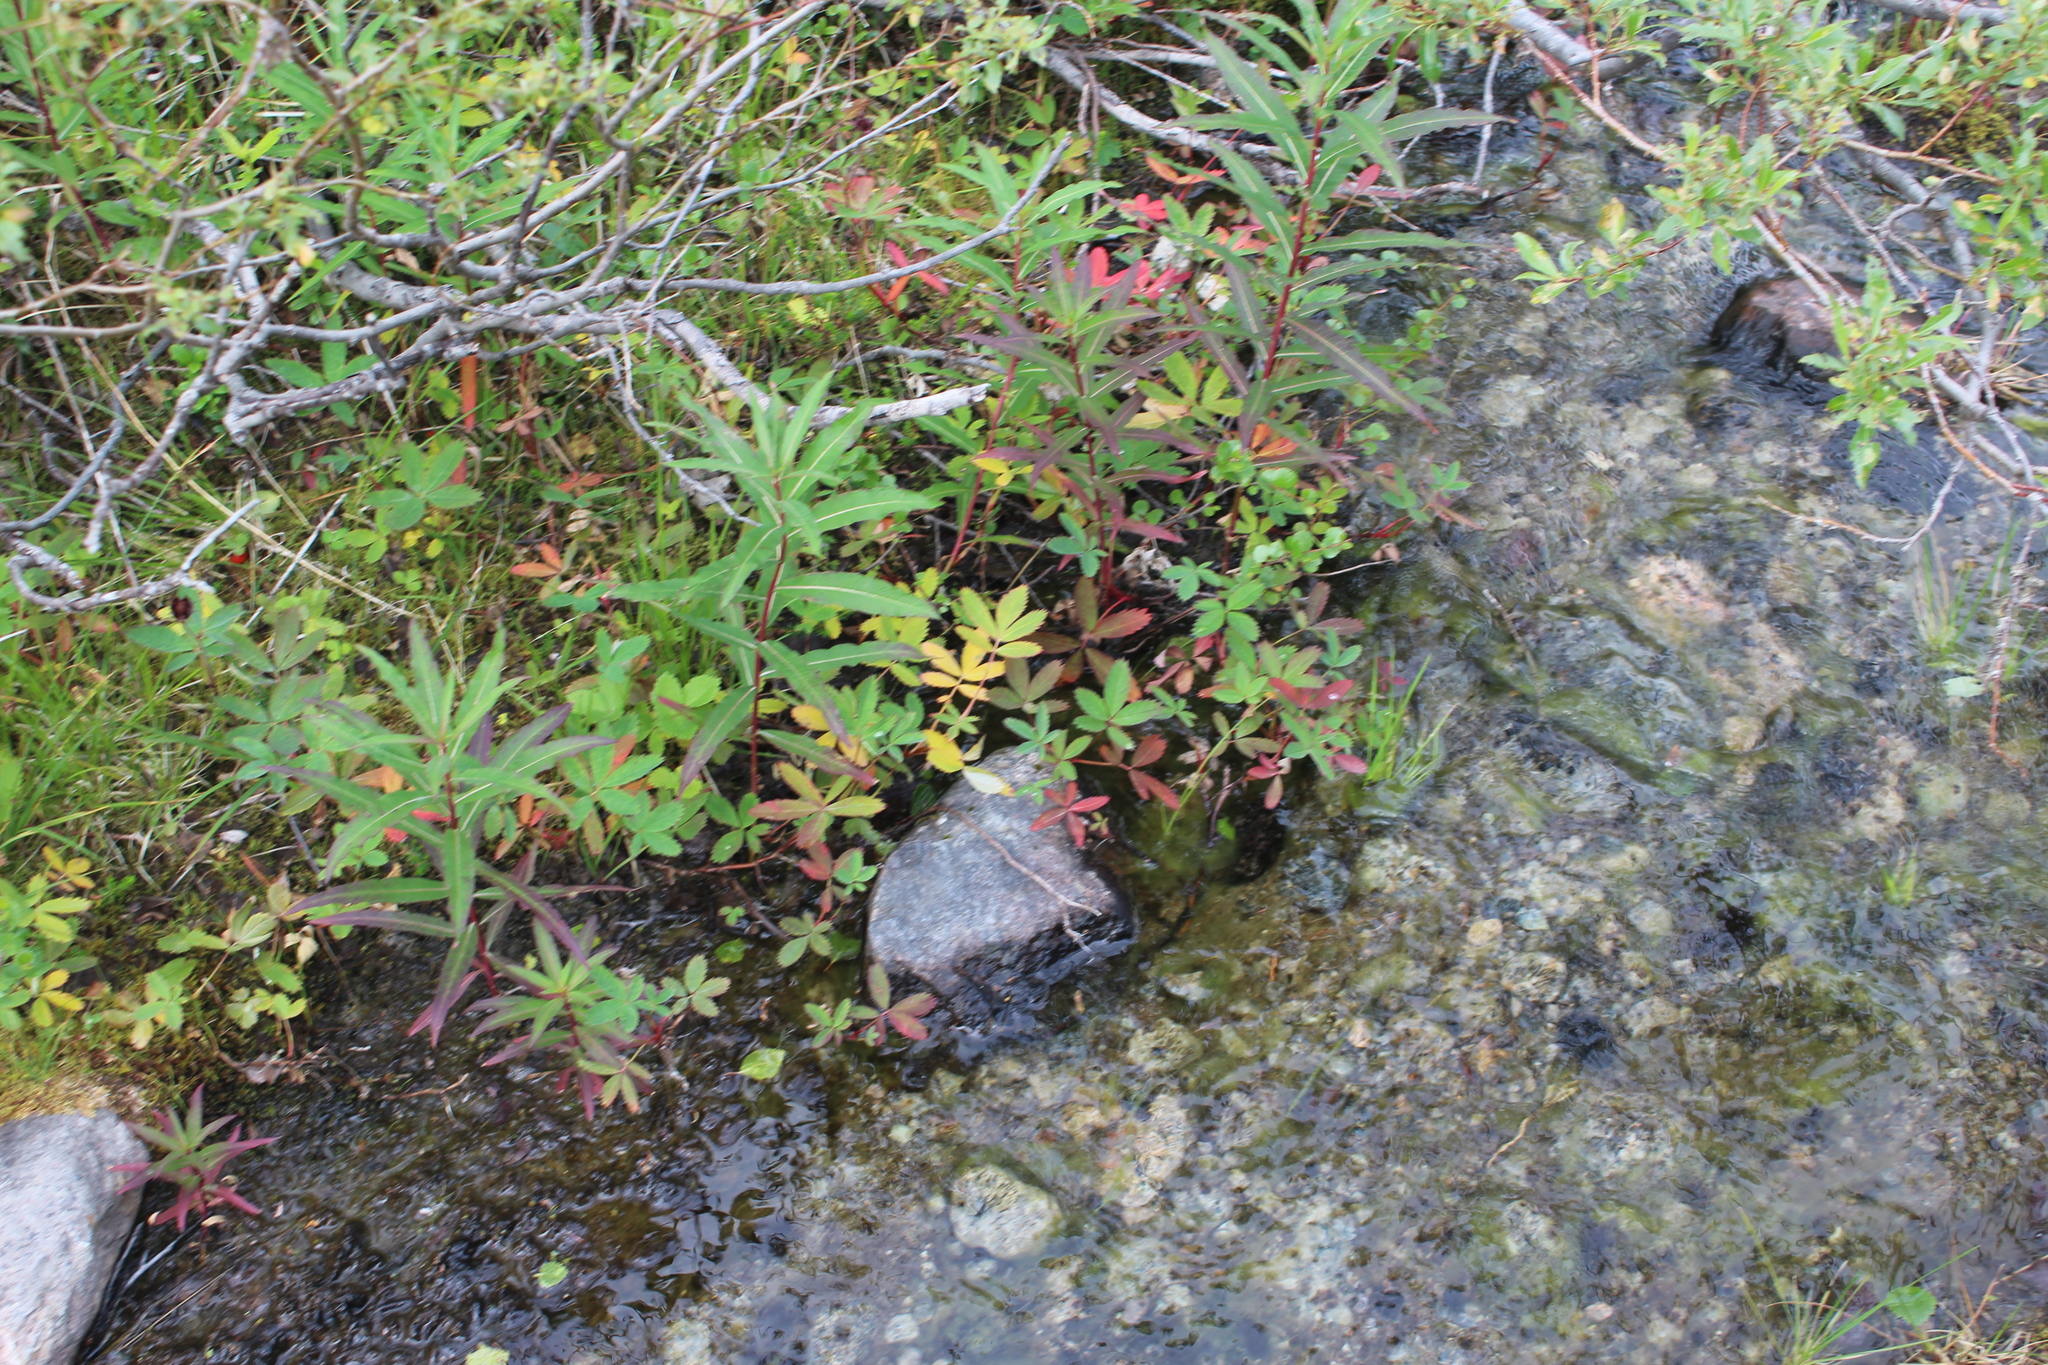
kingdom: Plantae
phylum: Tracheophyta
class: Magnoliopsida
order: Rosales
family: Rosaceae
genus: Comarum
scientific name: Comarum palustre
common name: Marsh cinquefoil
